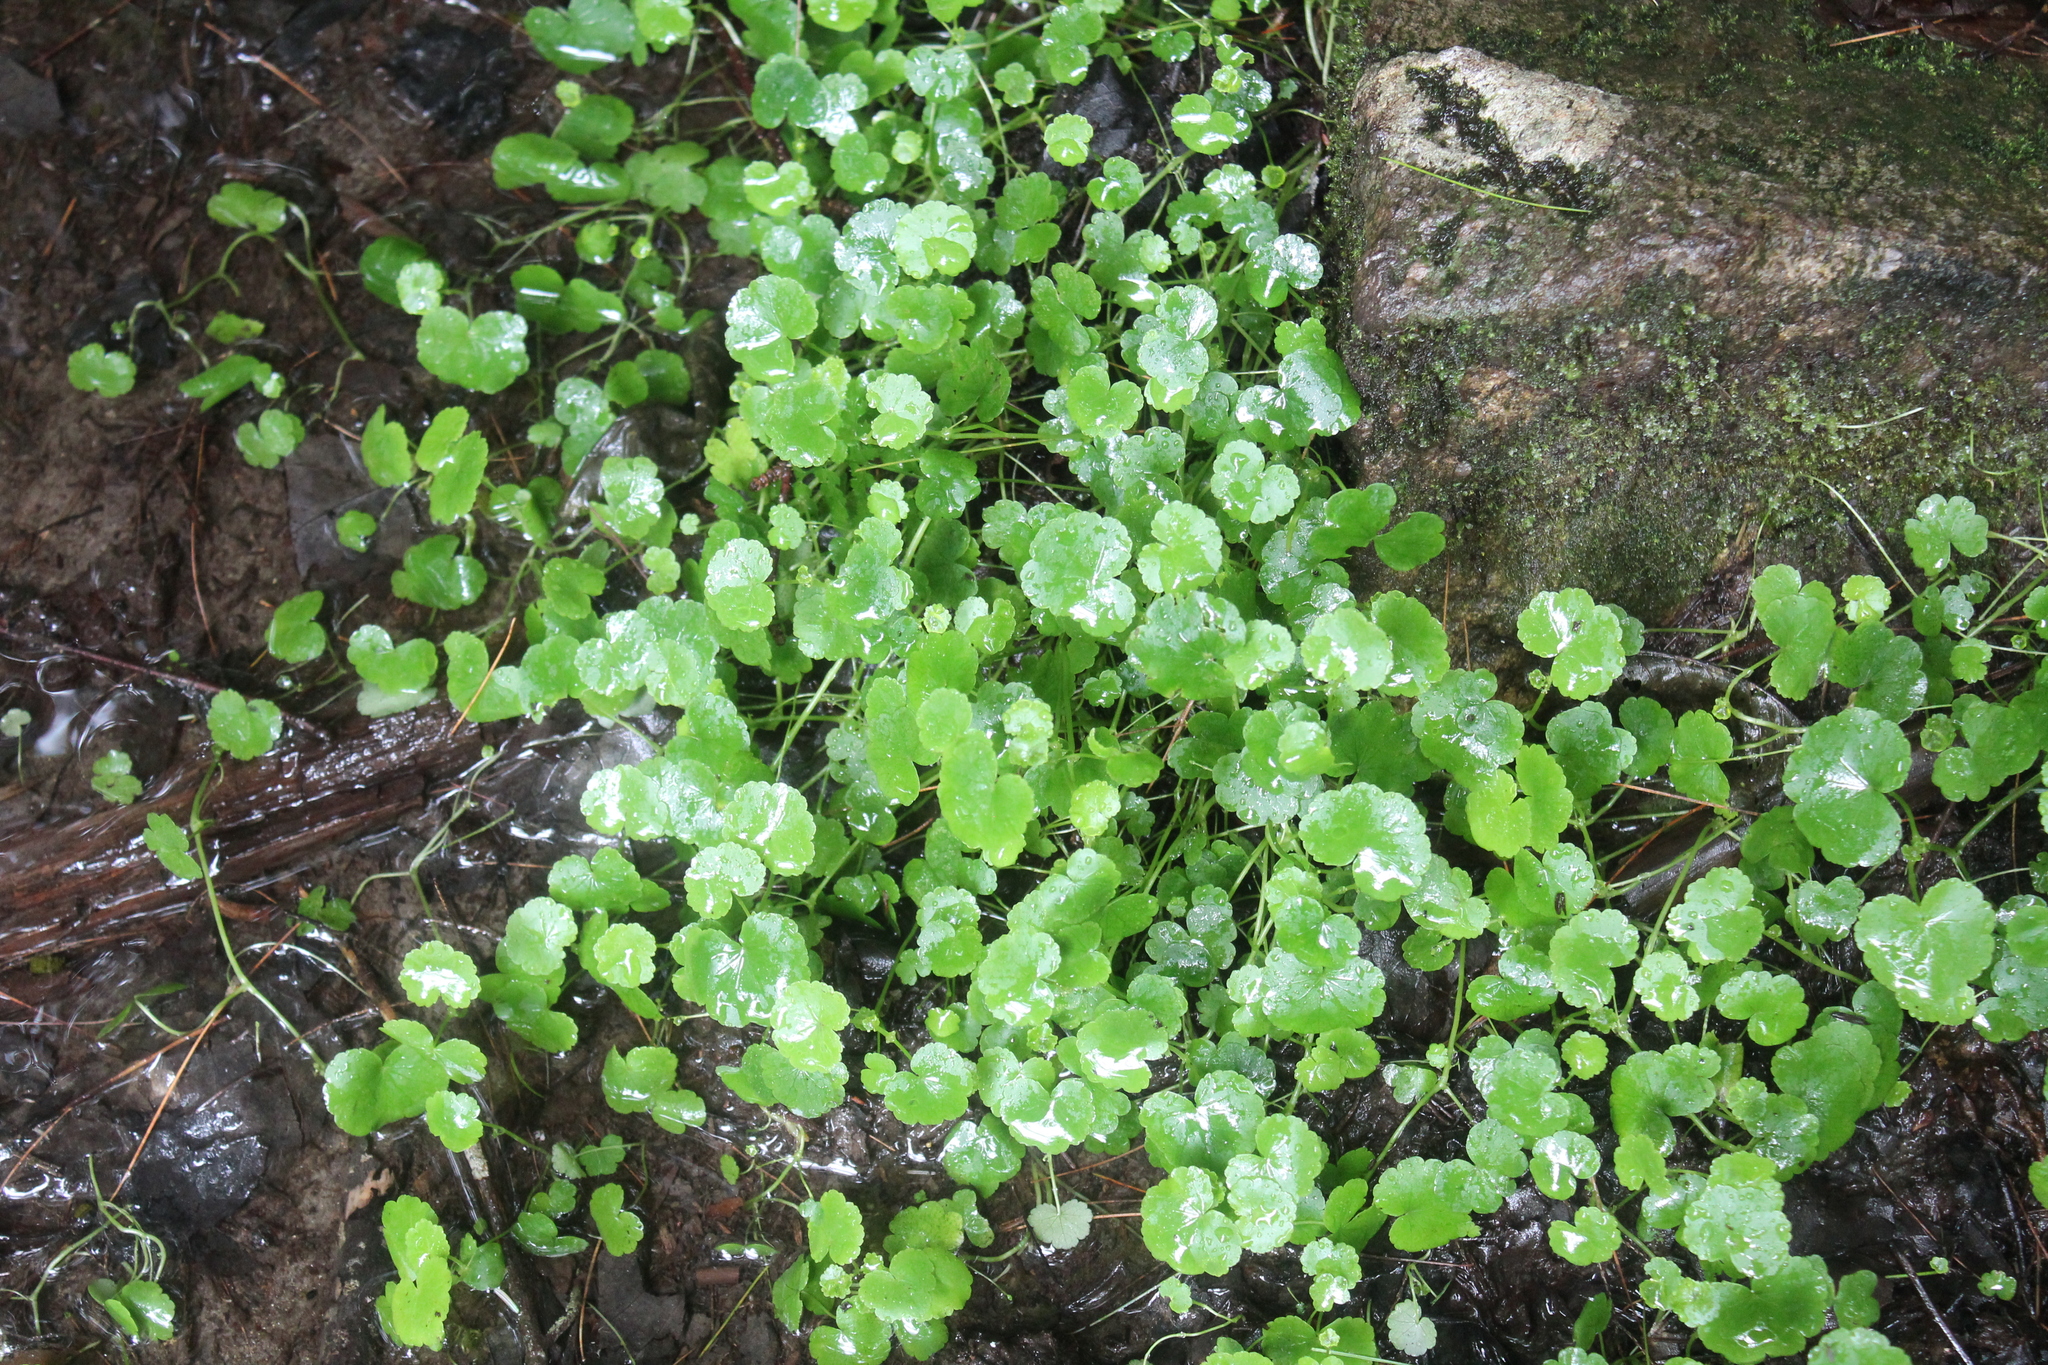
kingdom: Plantae
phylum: Tracheophyta
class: Magnoliopsida
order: Apiales
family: Araliaceae
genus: Hydrocotyle
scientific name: Hydrocotyle americana
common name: American water-pennywort
